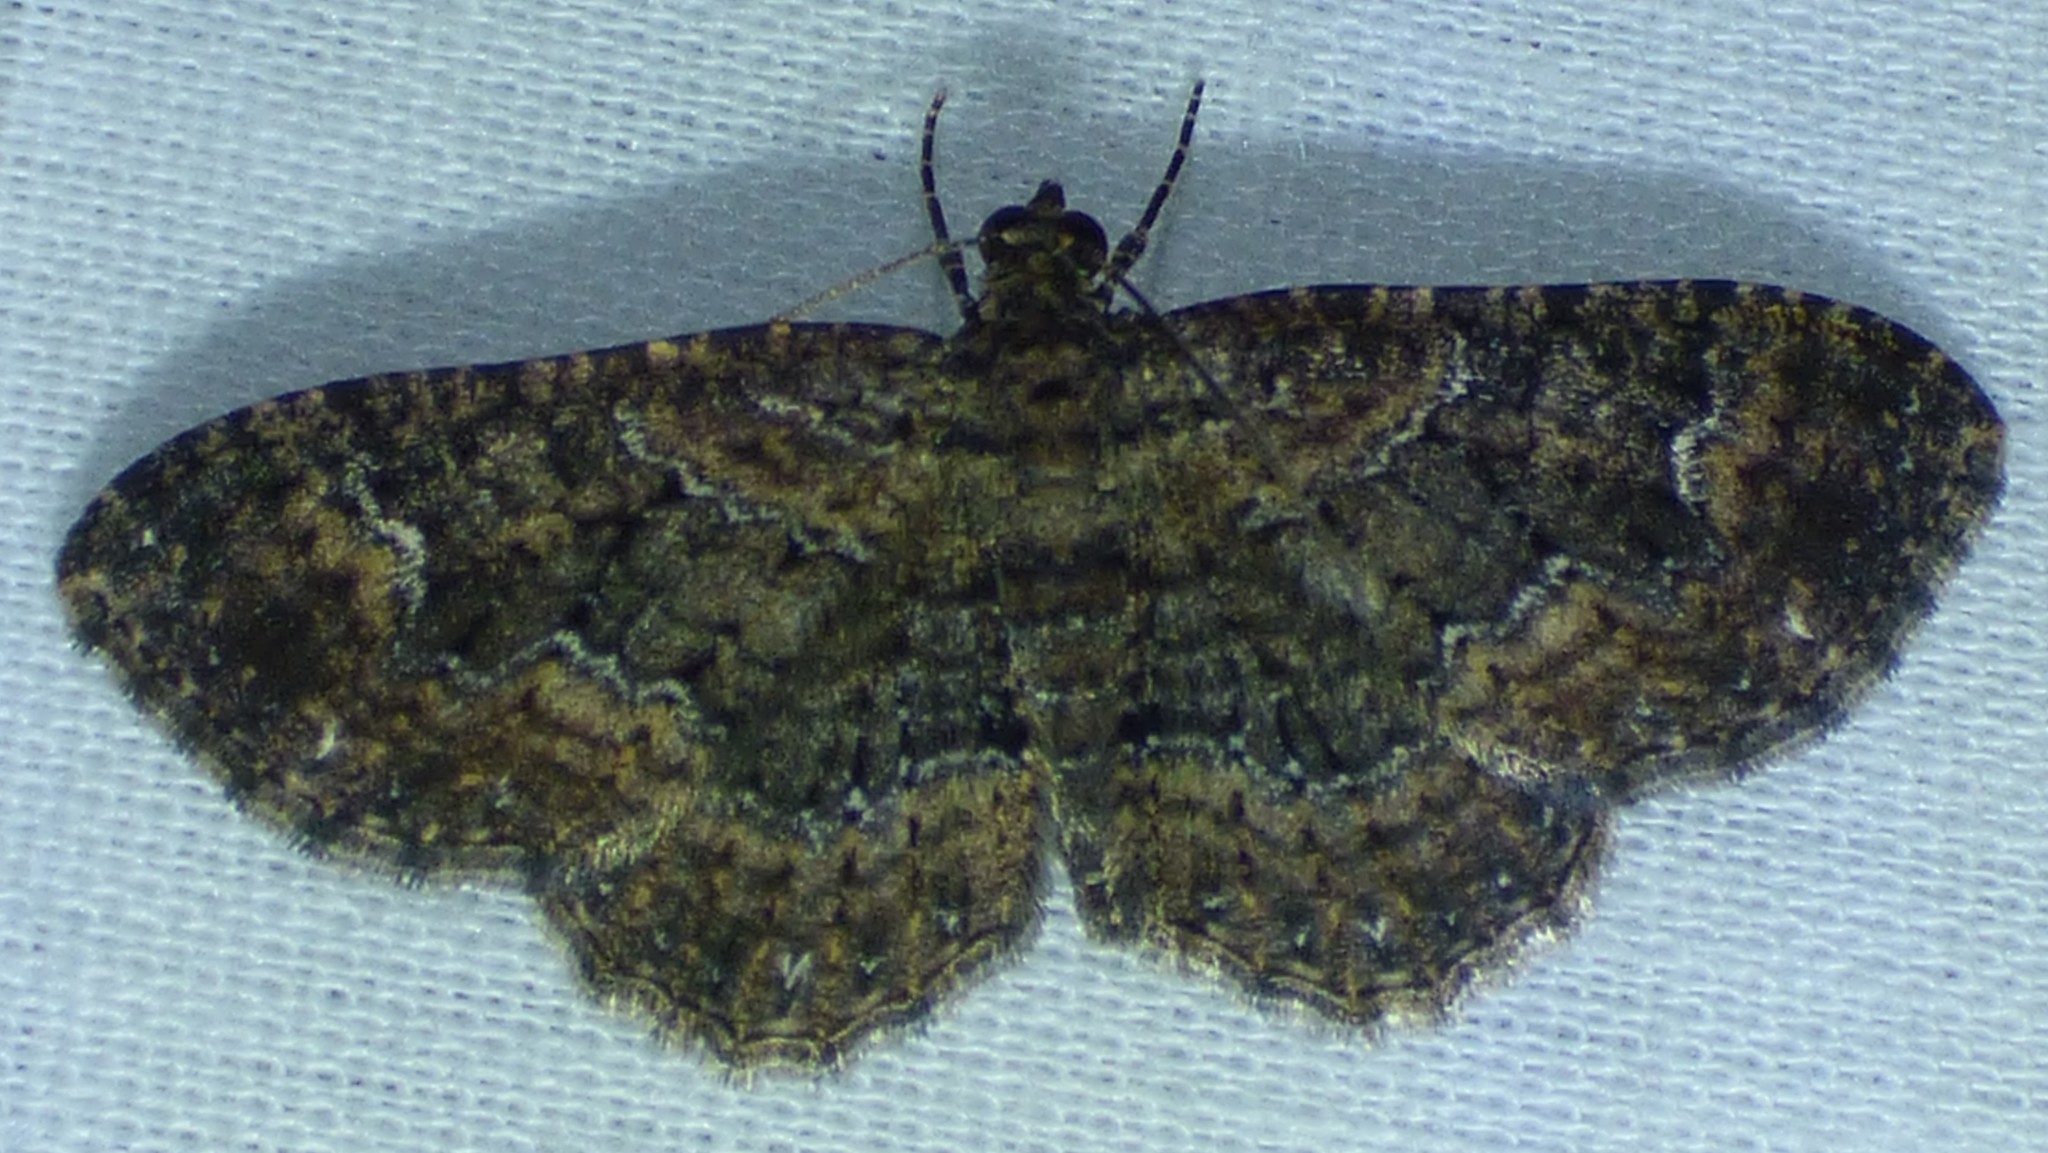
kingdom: Animalia
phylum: Arthropoda
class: Insecta
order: Lepidoptera
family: Geometridae
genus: Disclisioprocta
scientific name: Disclisioprocta stellata
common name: Somber carpet
